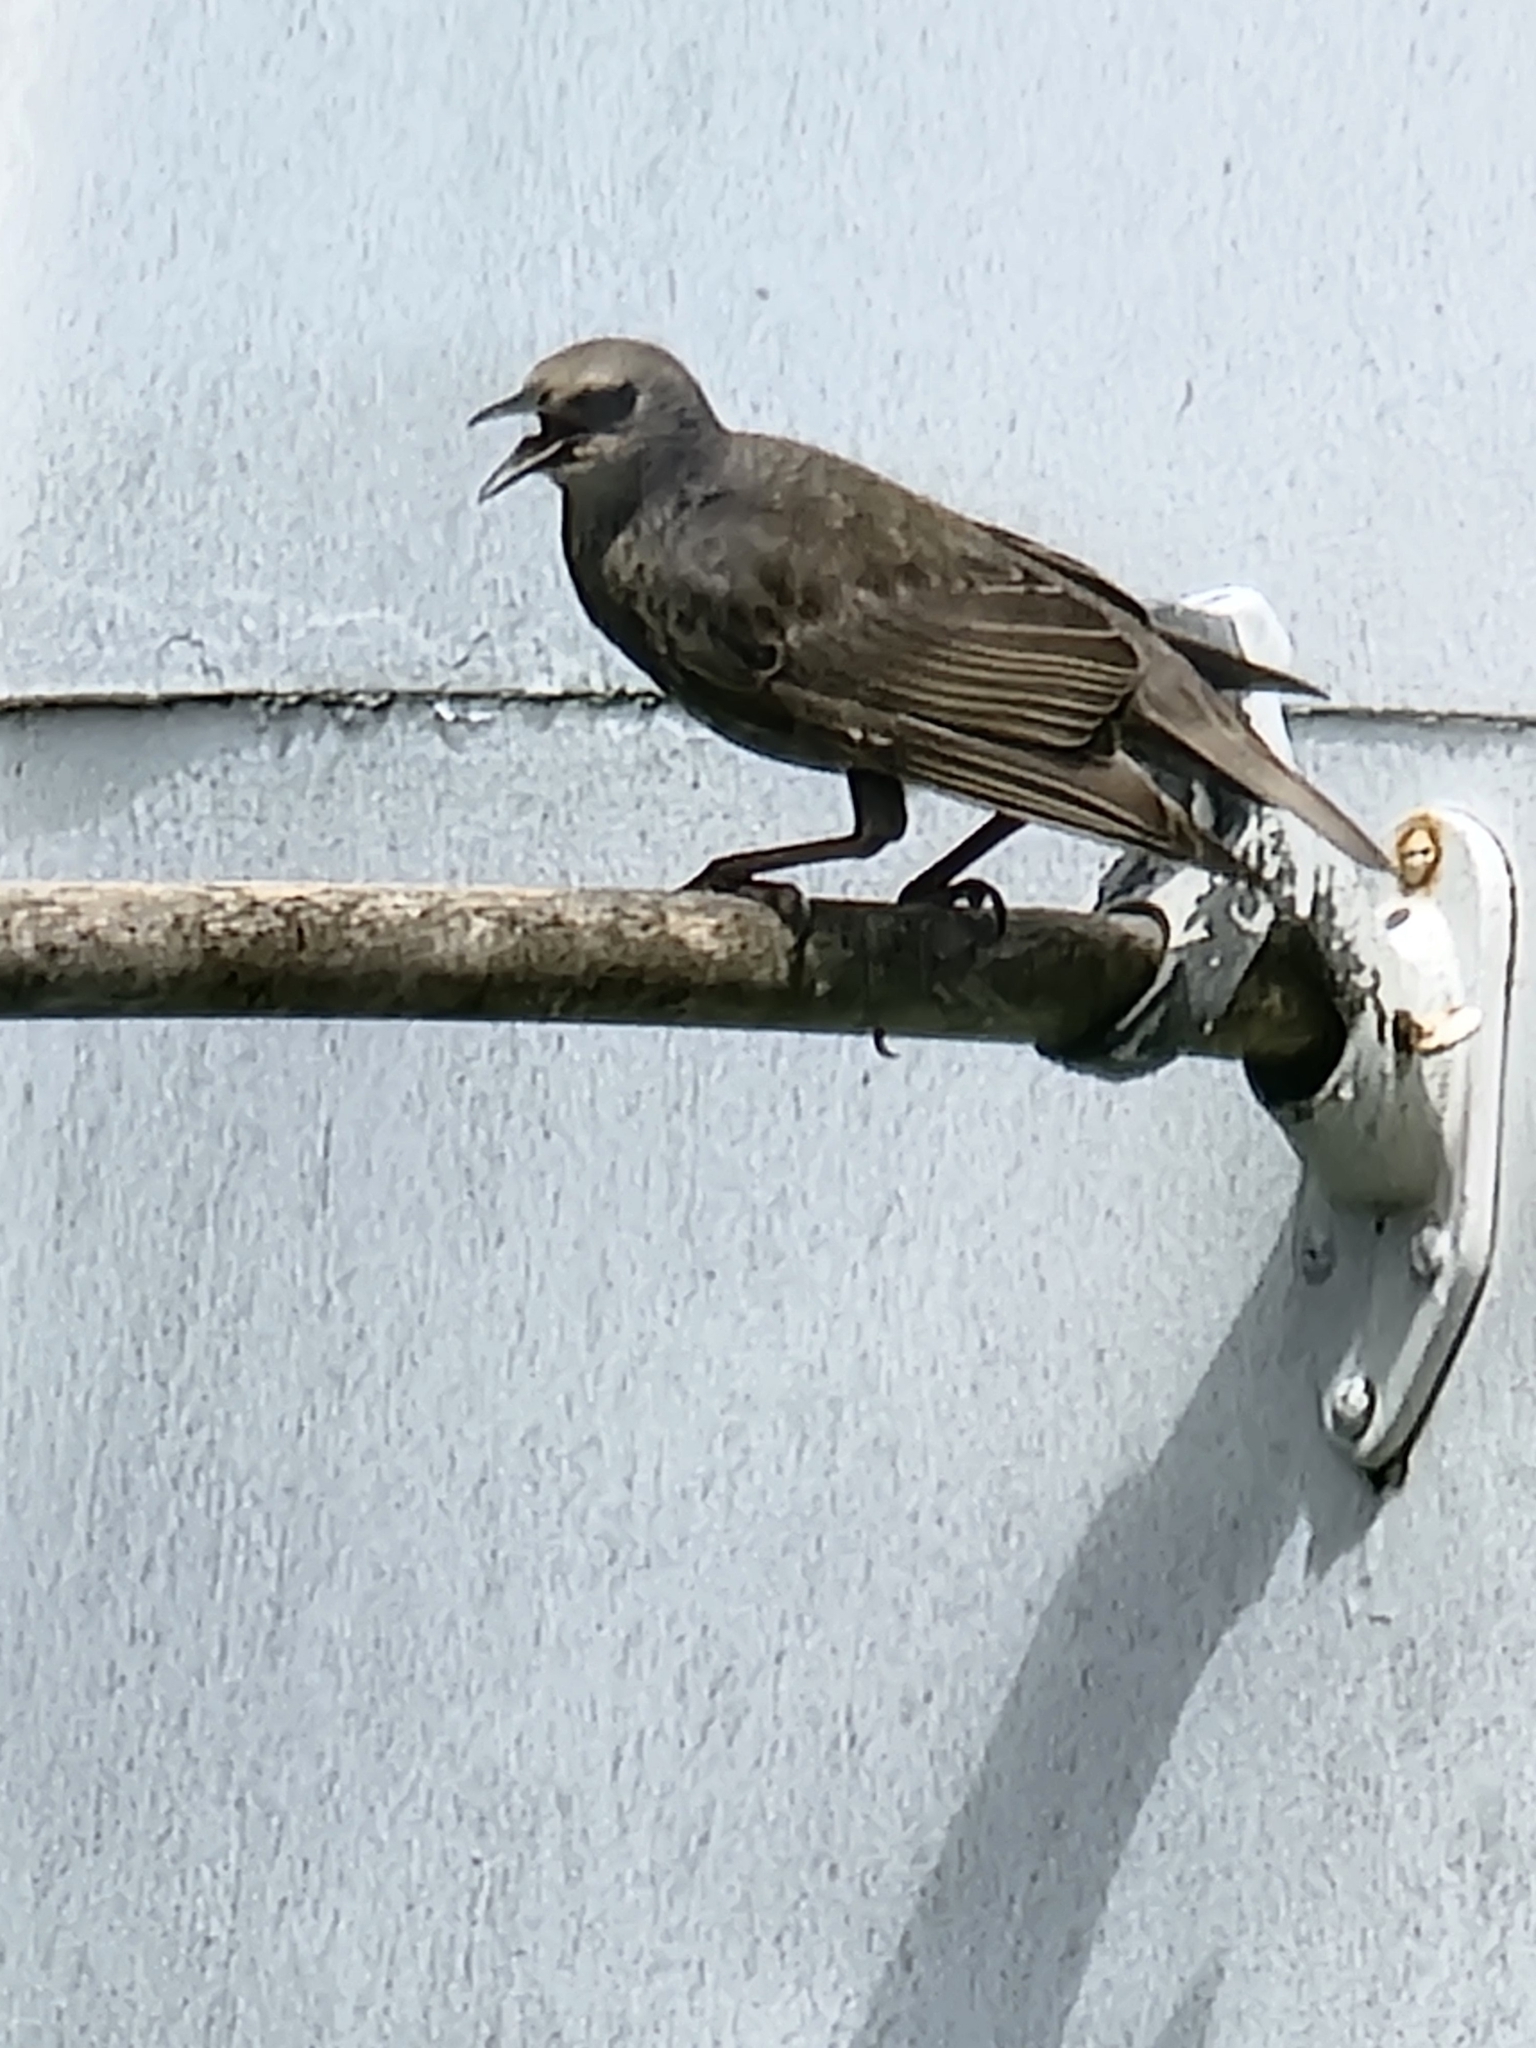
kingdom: Animalia
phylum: Chordata
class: Aves
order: Passeriformes
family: Sturnidae
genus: Sturnus
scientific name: Sturnus vulgaris
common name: Common starling
